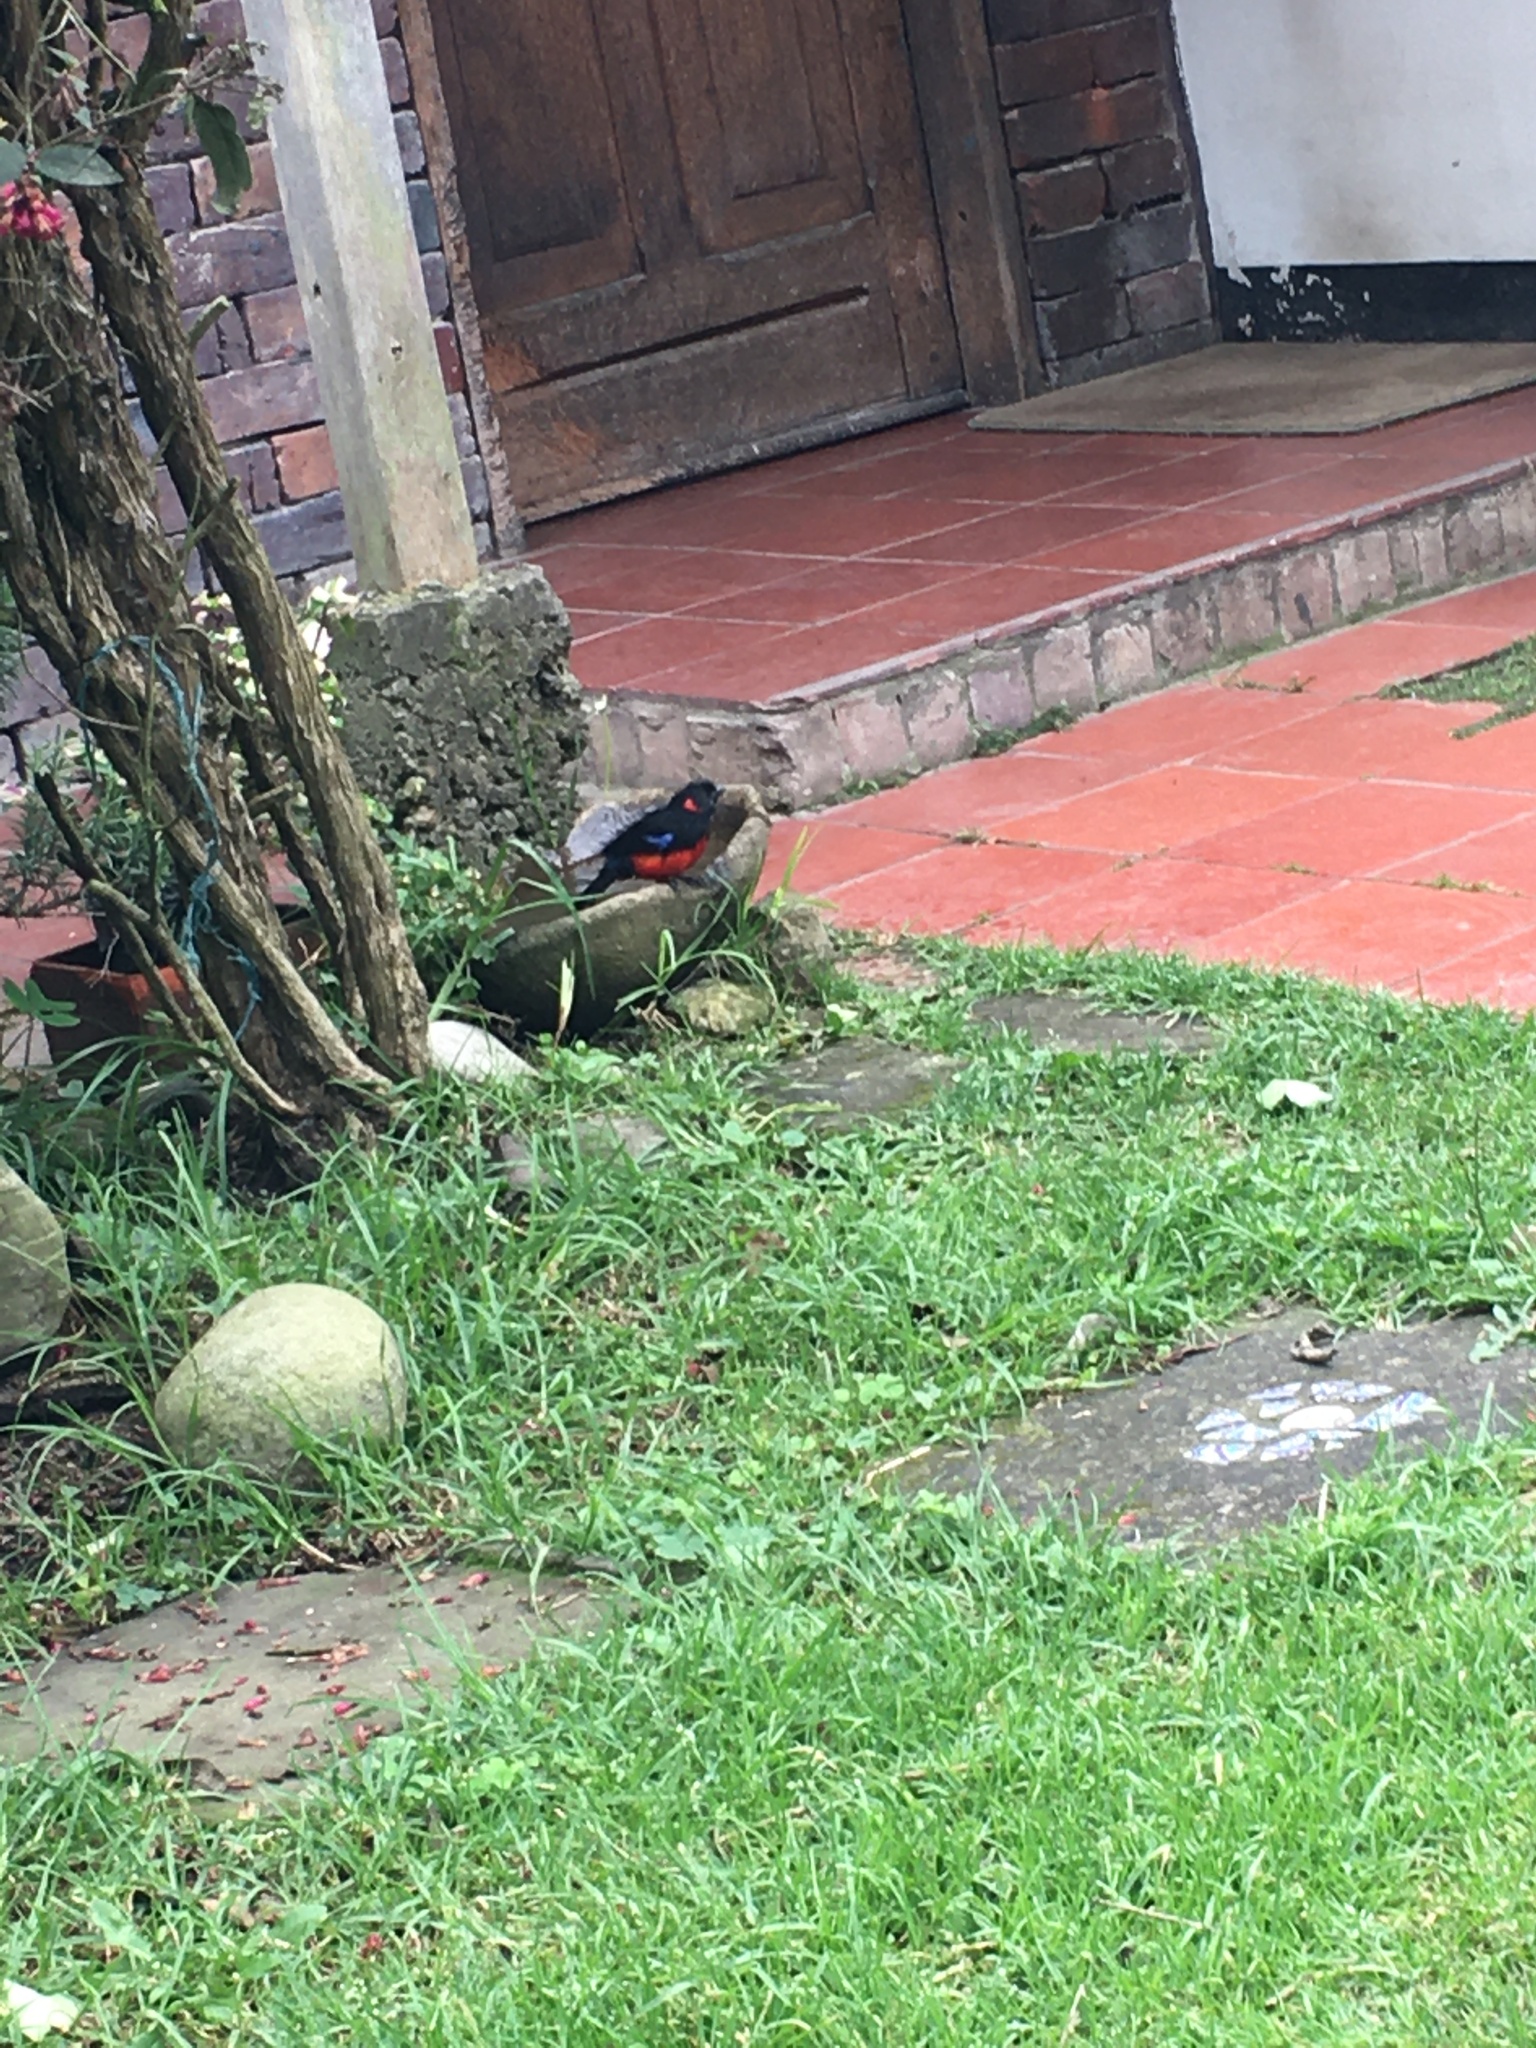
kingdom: Animalia
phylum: Chordata
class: Aves
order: Passeriformes
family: Thraupidae
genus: Anisognathus
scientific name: Anisognathus igniventris
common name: Scarlet-bellied mountain tanager
